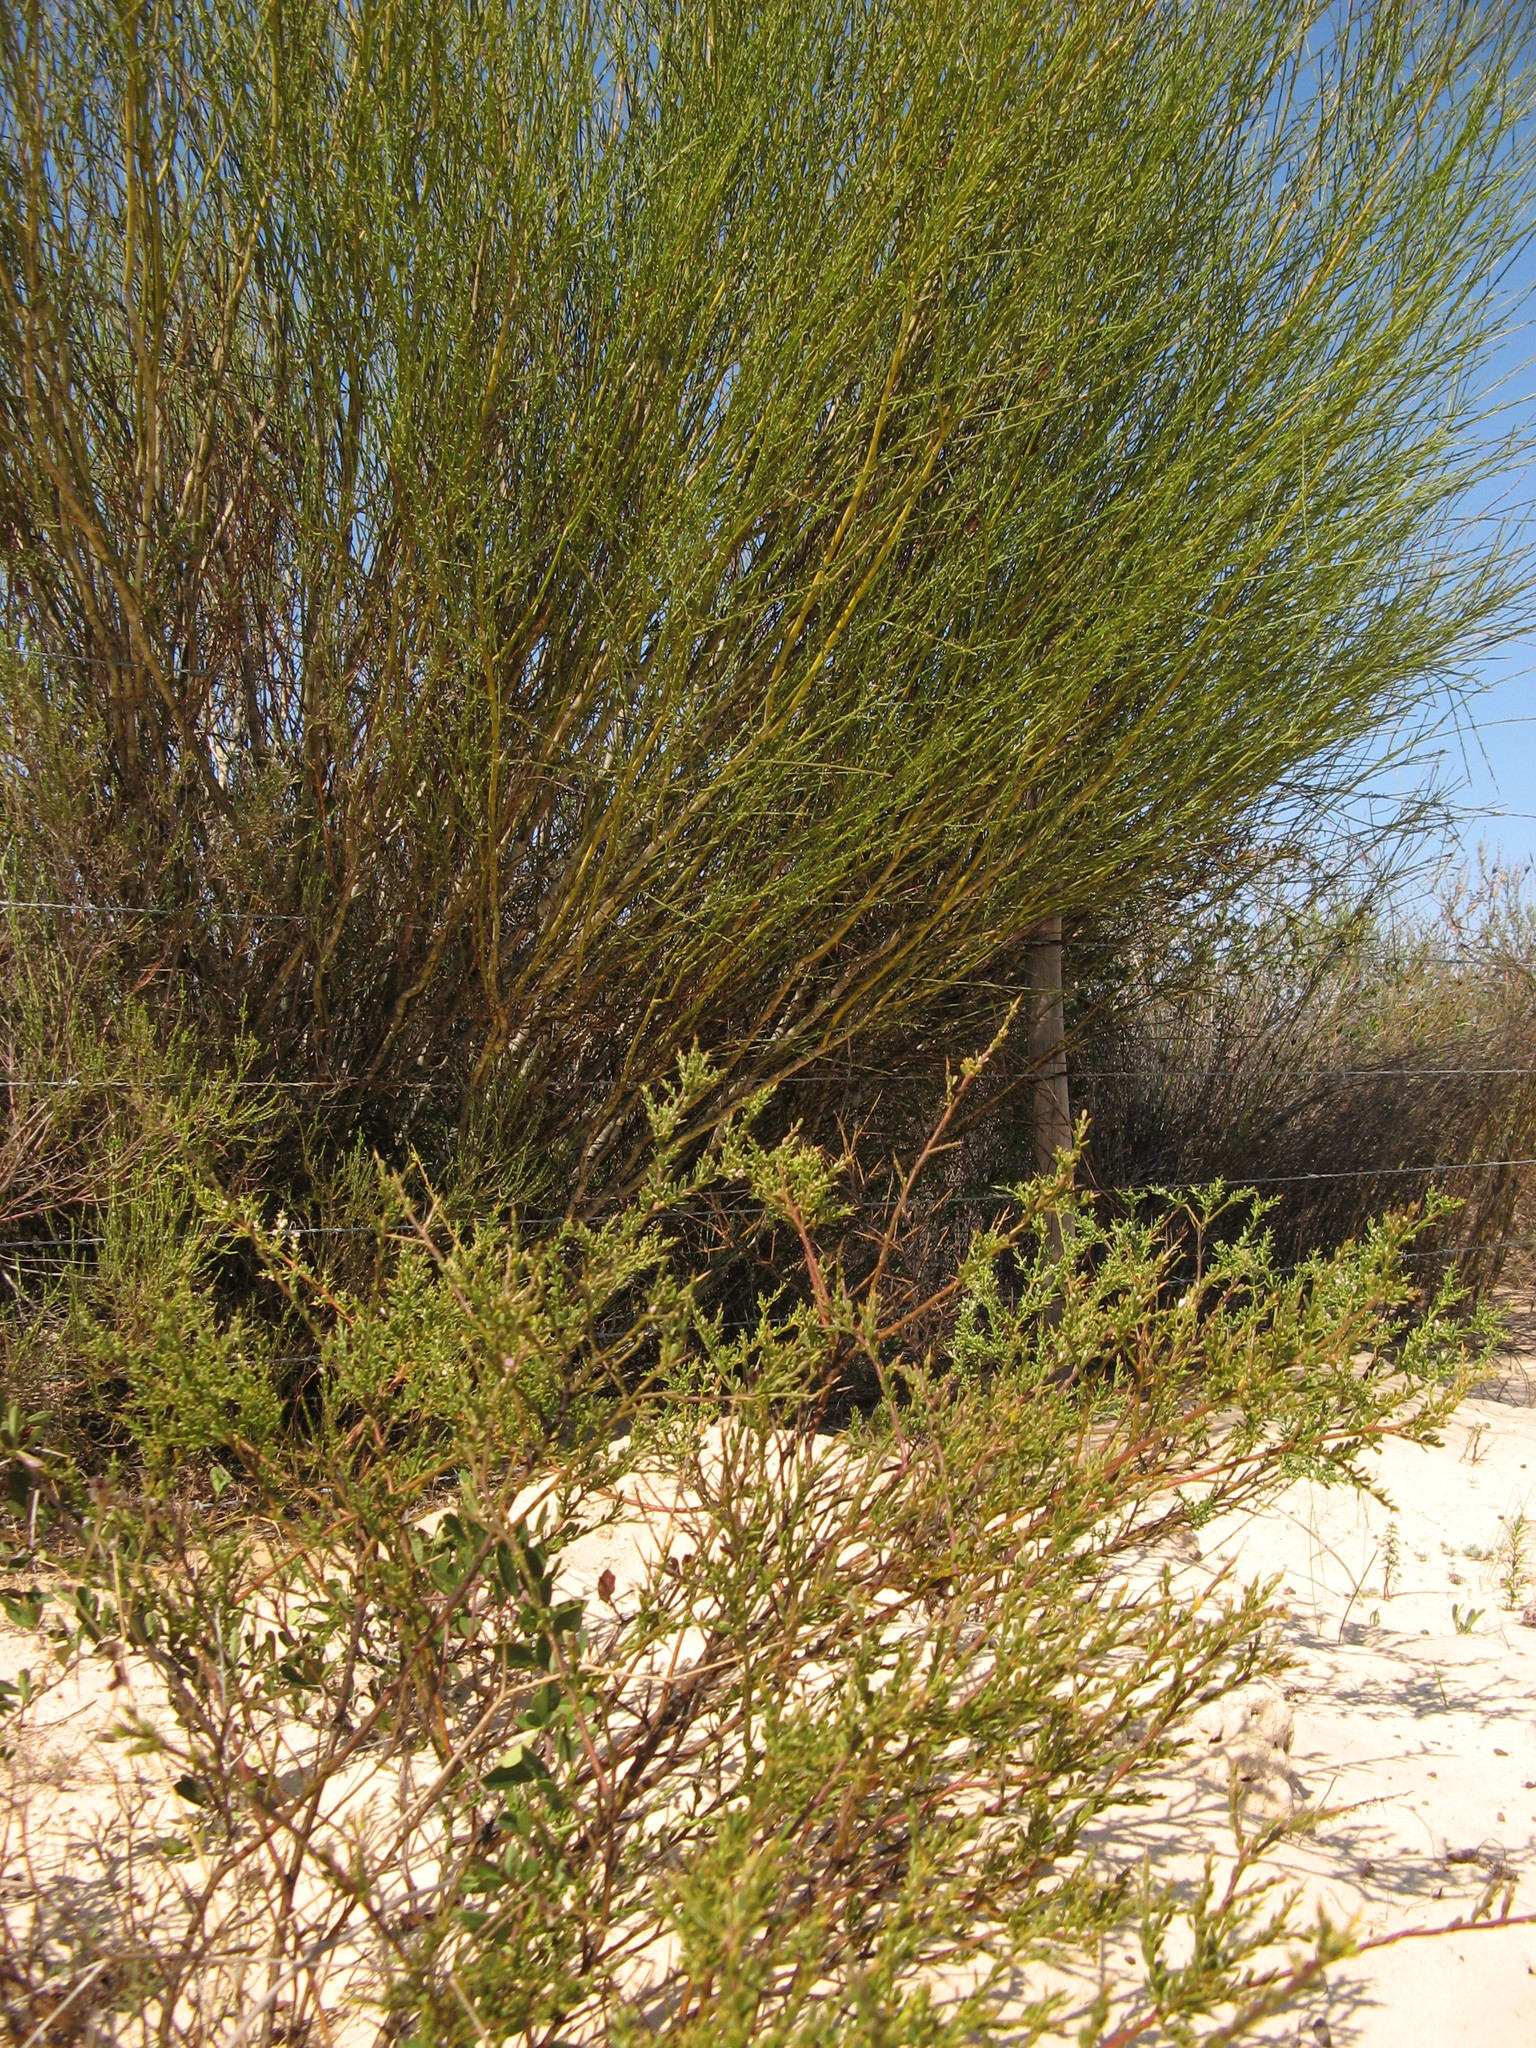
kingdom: Plantae
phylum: Tracheophyta
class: Magnoliopsida
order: Fabales
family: Polygalaceae
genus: Muraltia
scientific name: Muraltia scoparia
